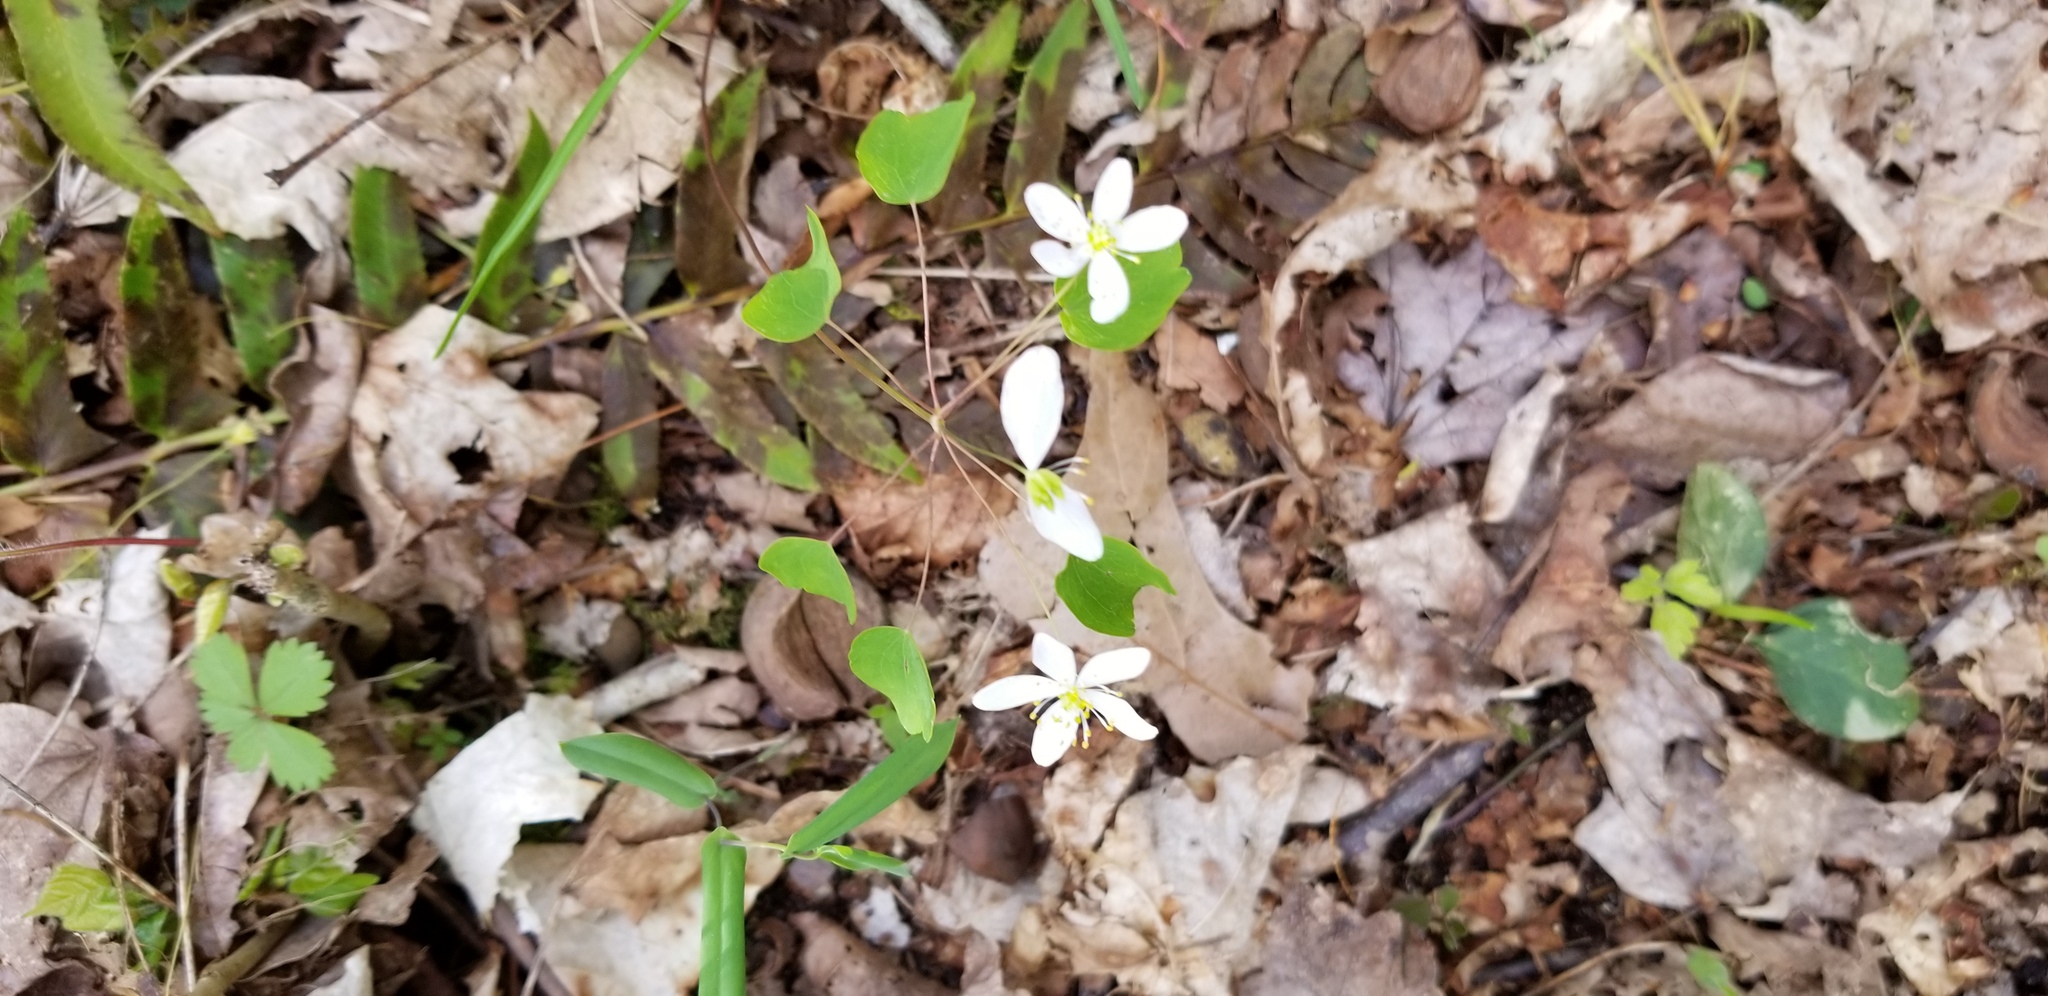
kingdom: Plantae
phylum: Tracheophyta
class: Magnoliopsida
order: Ranunculales
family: Ranunculaceae
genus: Thalictrum
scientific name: Thalictrum thalictroides
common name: Rue-anemone
